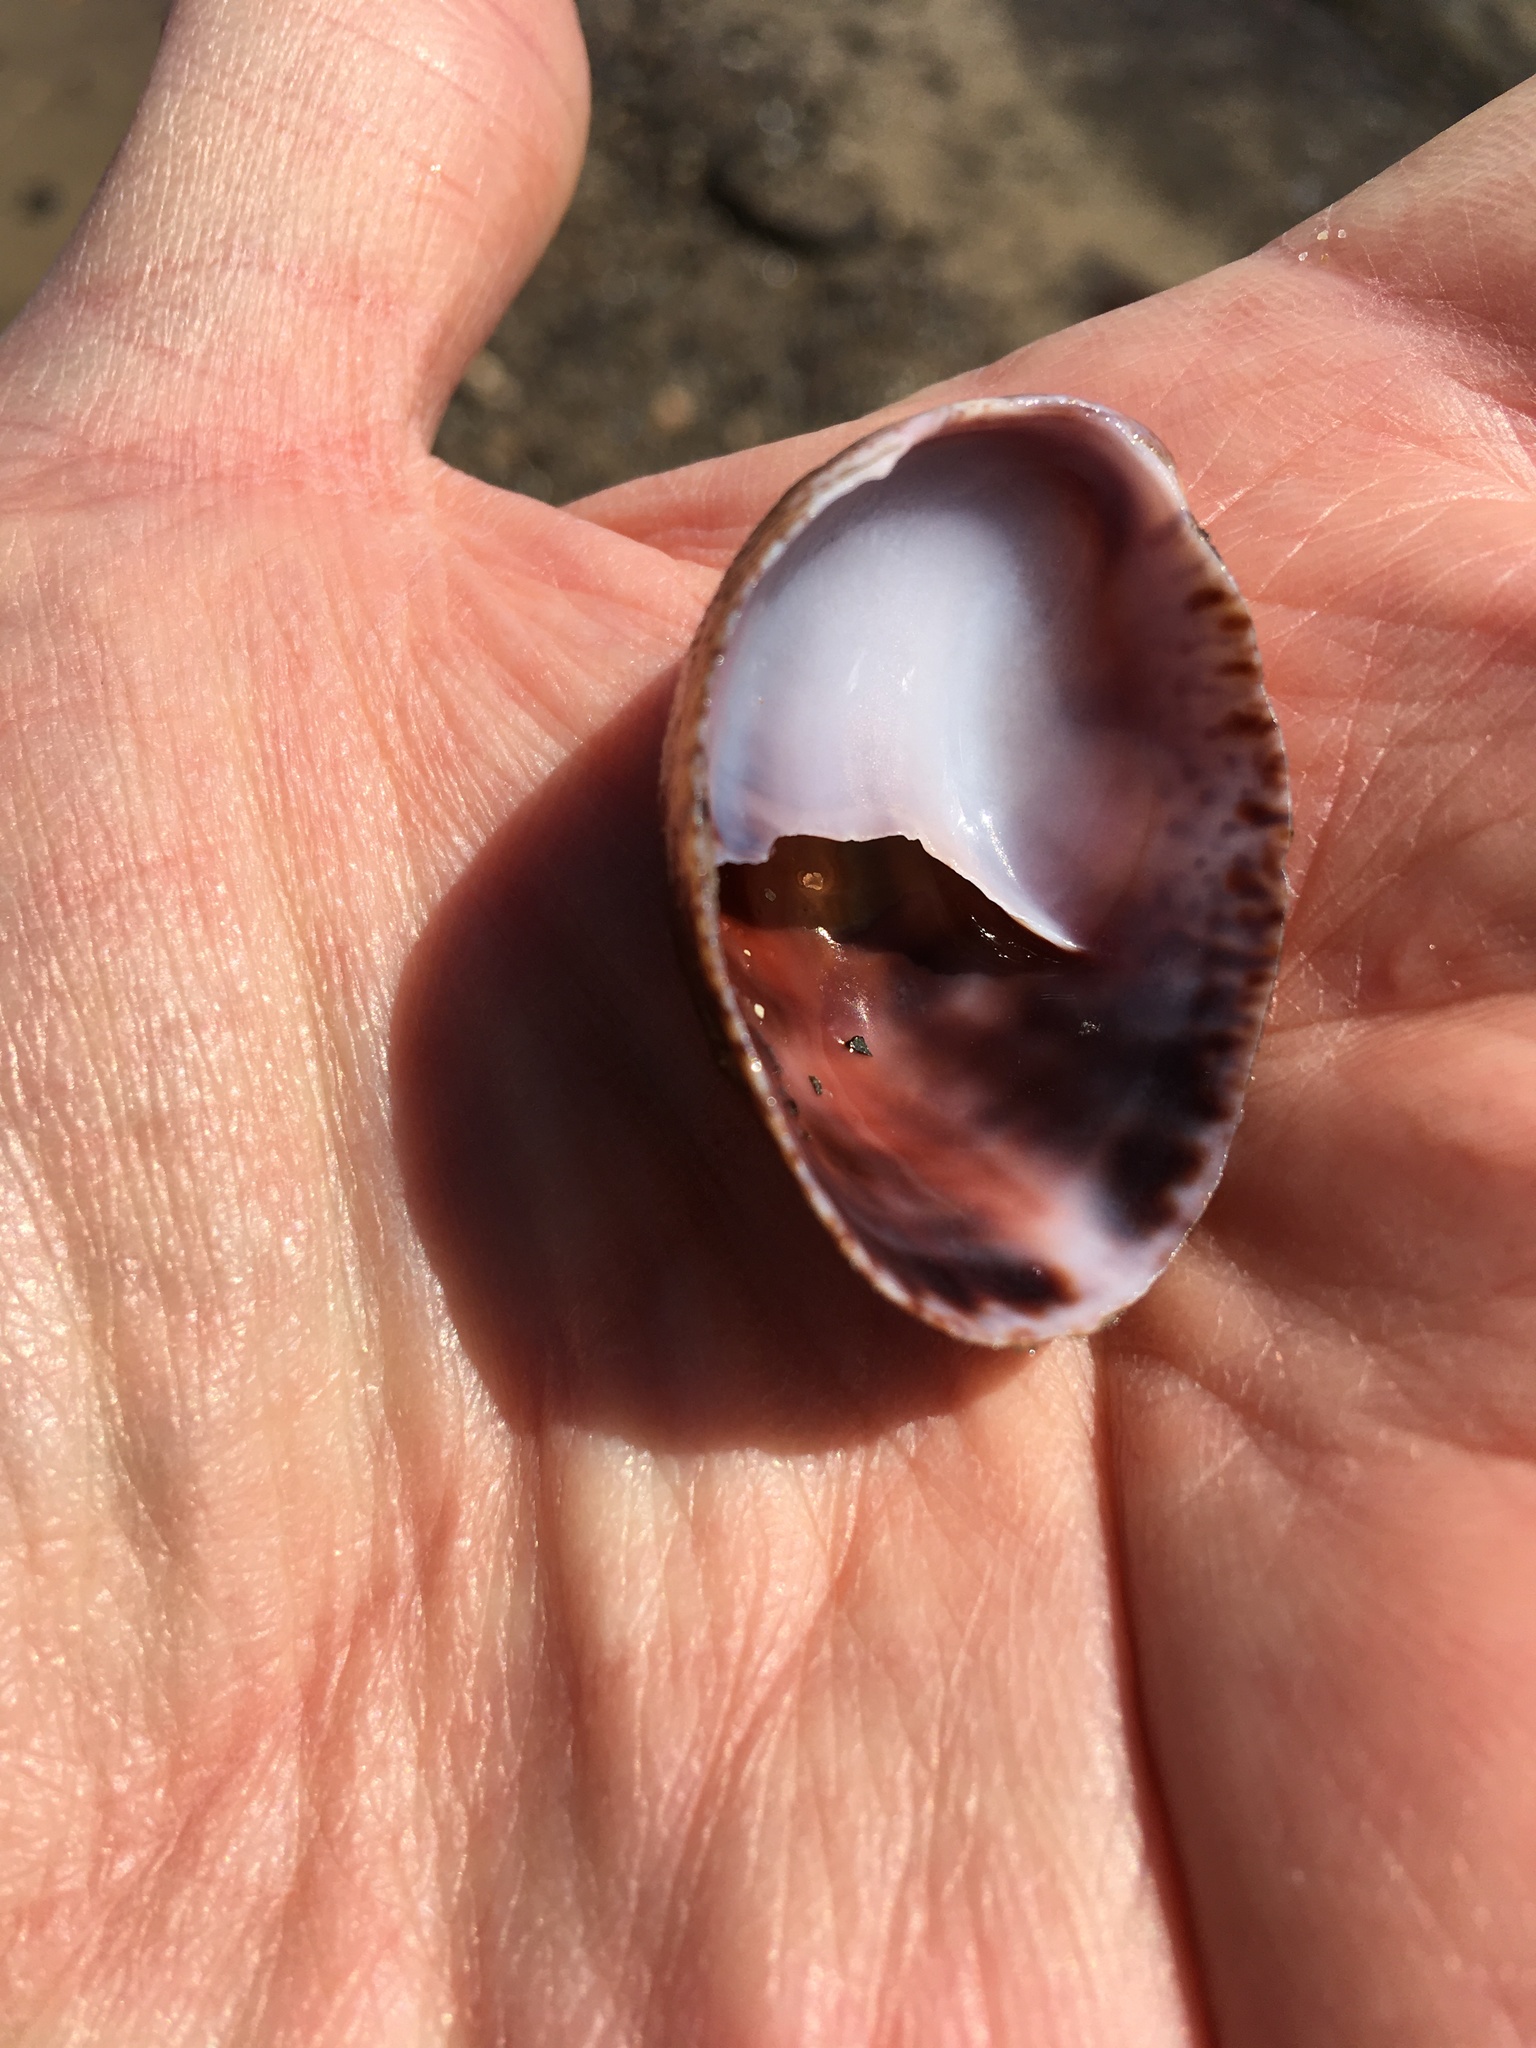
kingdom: Animalia
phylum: Mollusca
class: Gastropoda
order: Littorinimorpha
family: Calyptraeidae
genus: Crepidula
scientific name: Crepidula fornicata
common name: Slipper limpet
